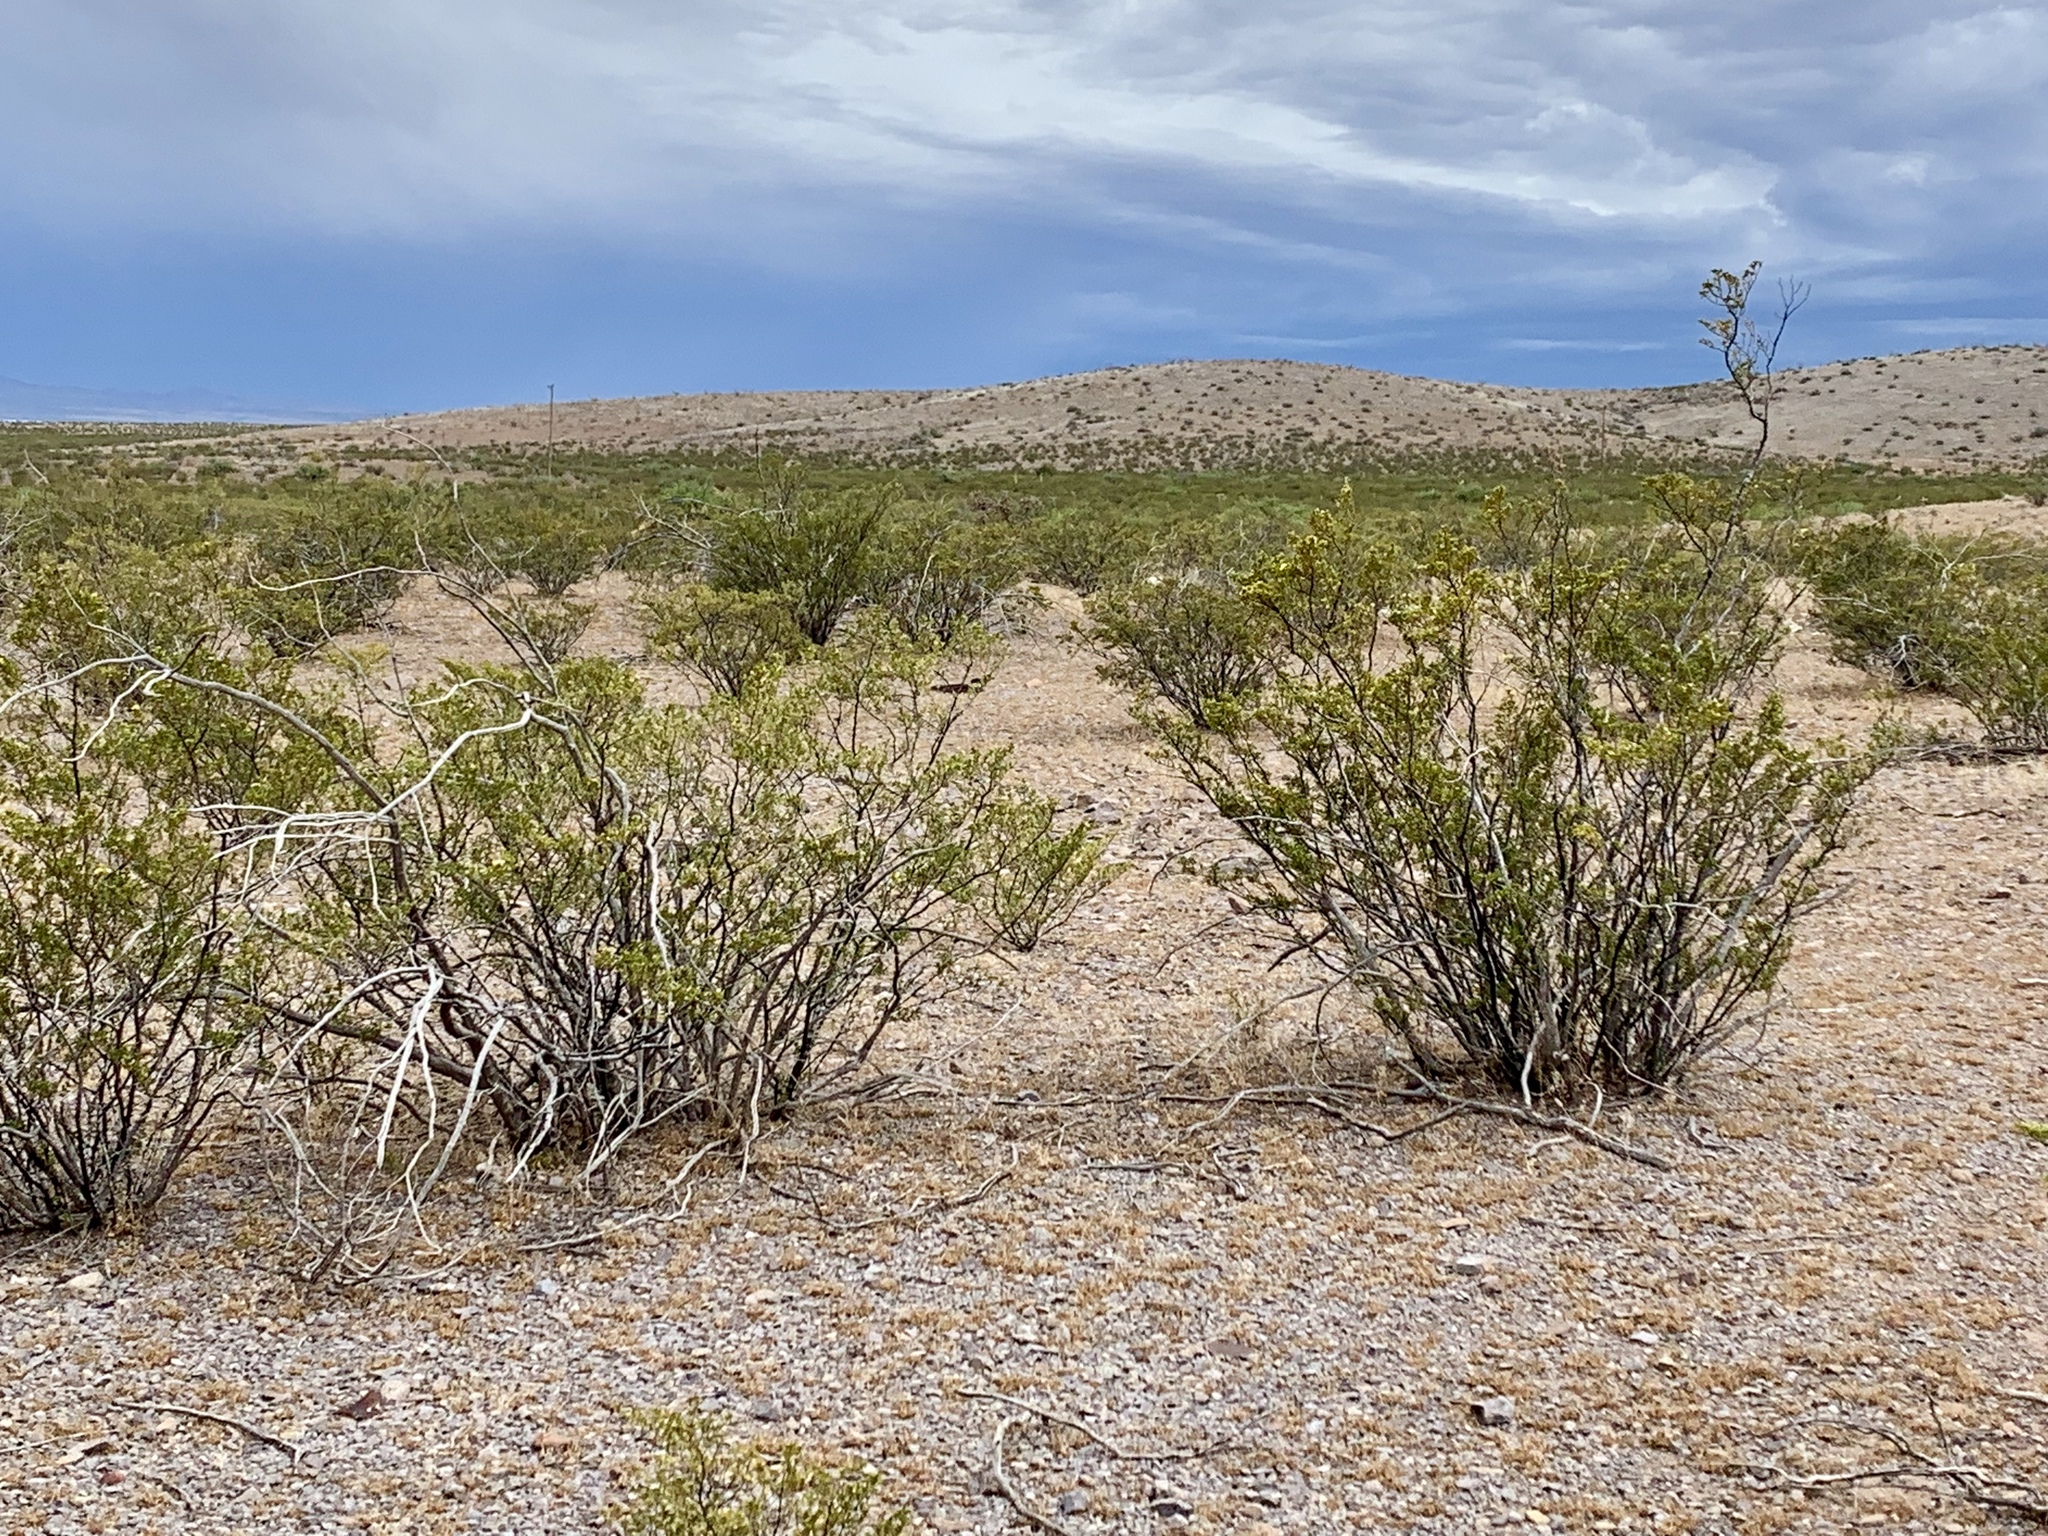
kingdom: Plantae
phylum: Tracheophyta
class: Magnoliopsida
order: Zygophyllales
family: Zygophyllaceae
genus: Larrea
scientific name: Larrea tridentata
